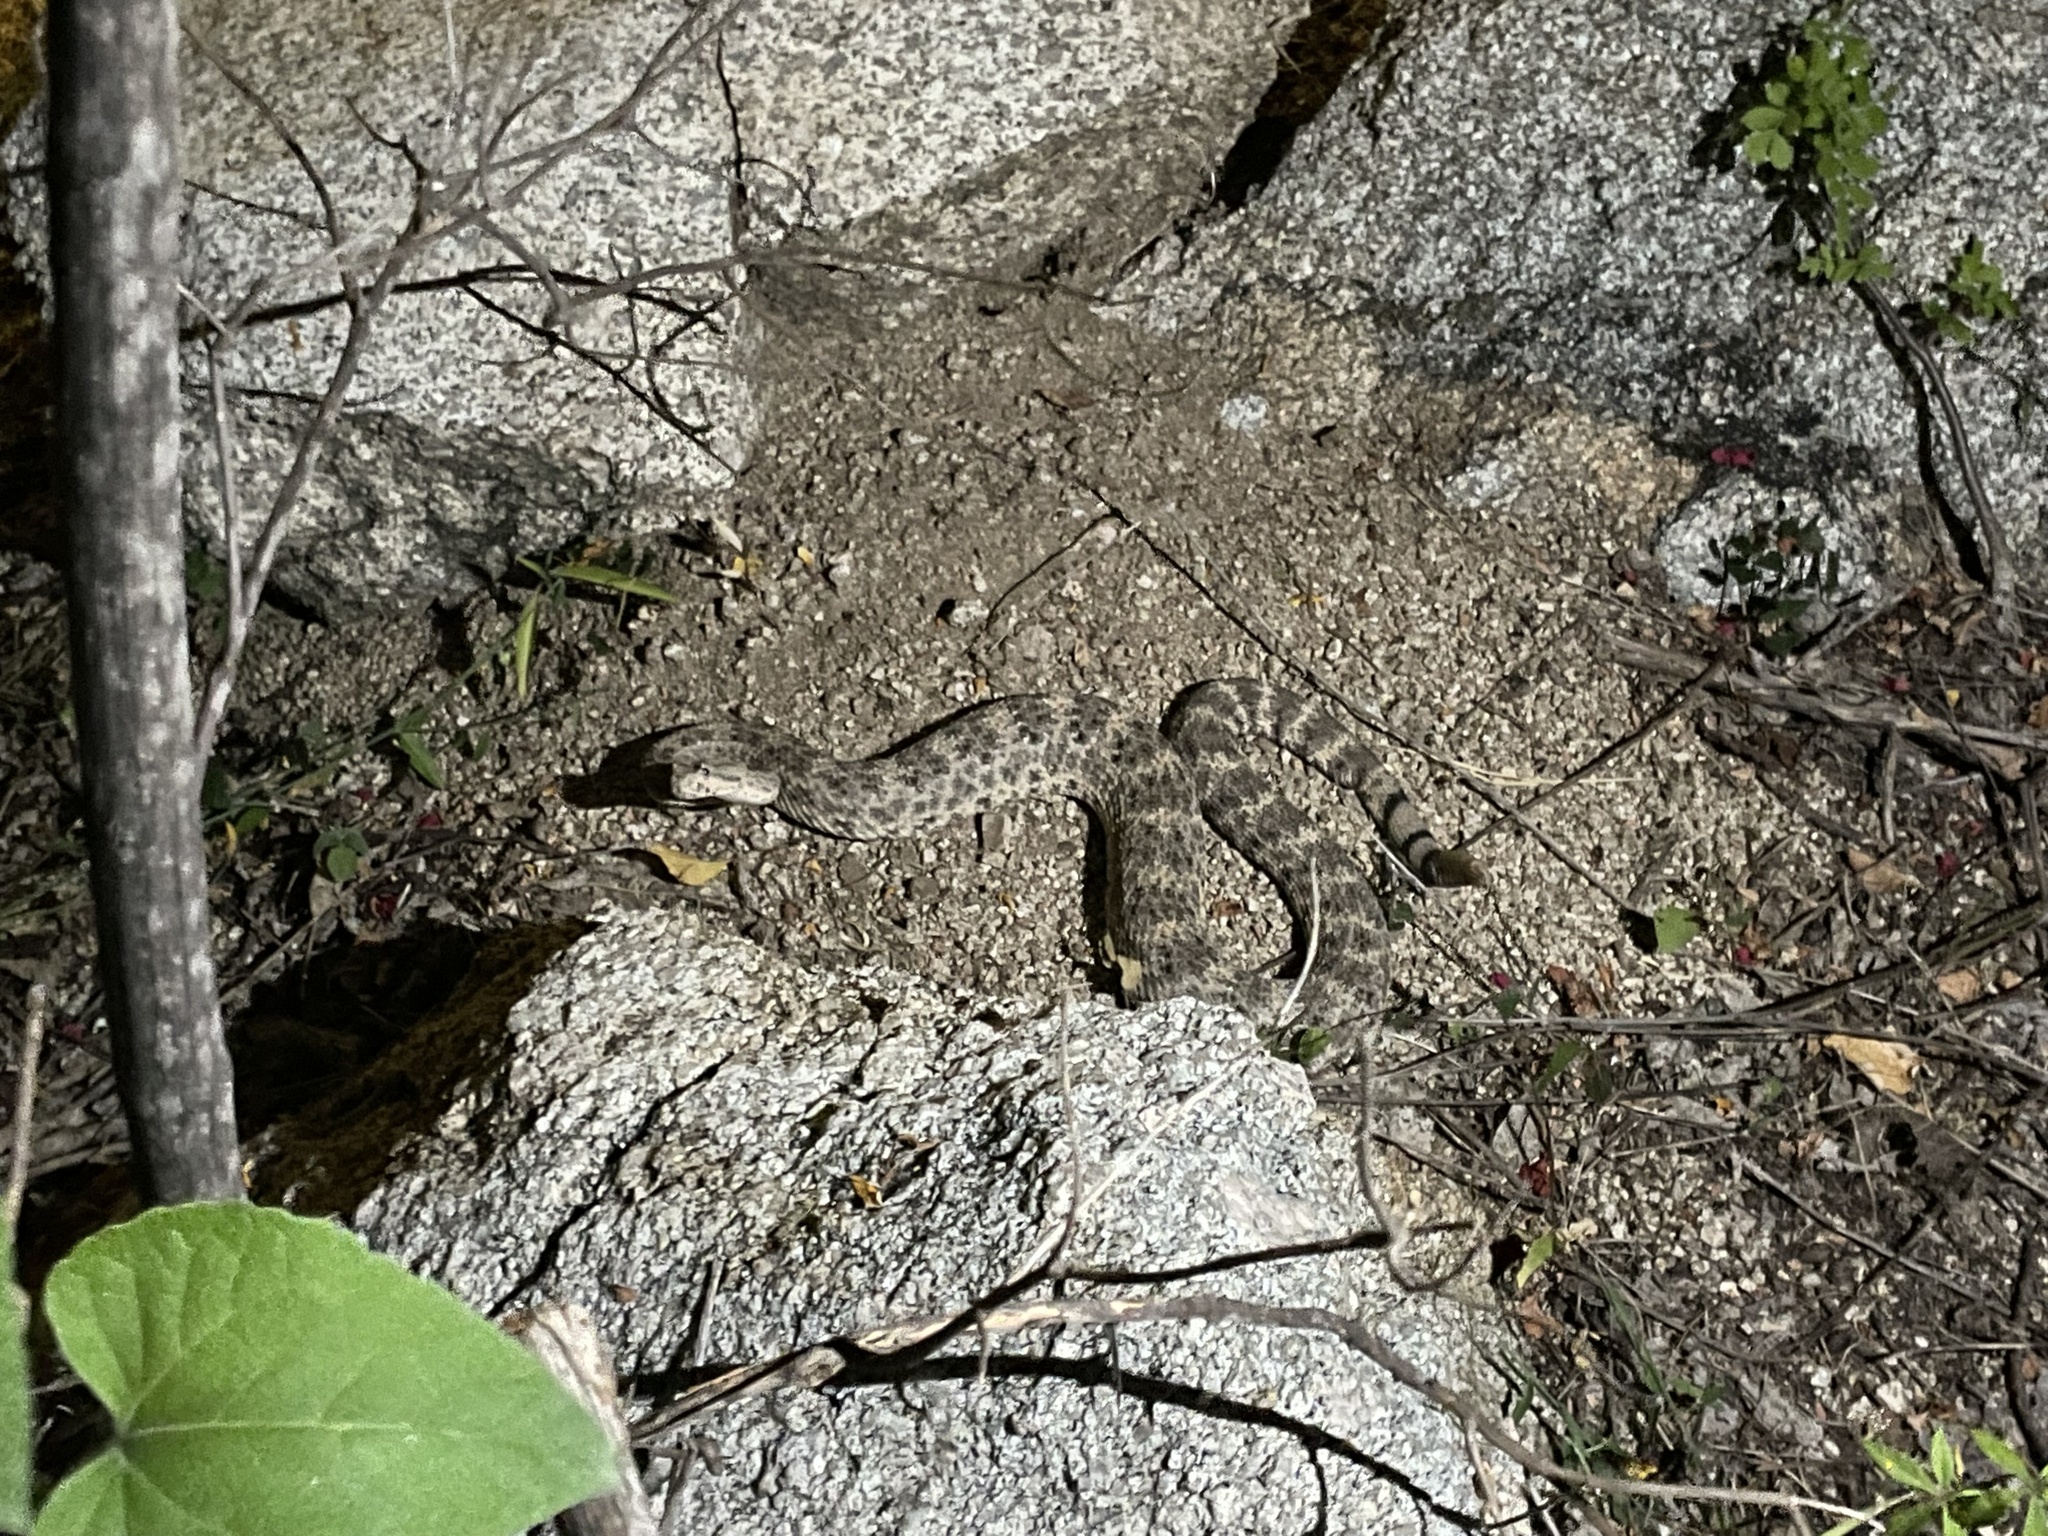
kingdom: Animalia
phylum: Chordata
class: Squamata
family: Viperidae
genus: Crotalus
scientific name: Crotalus mitchellii
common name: Speckled rattlesnake
